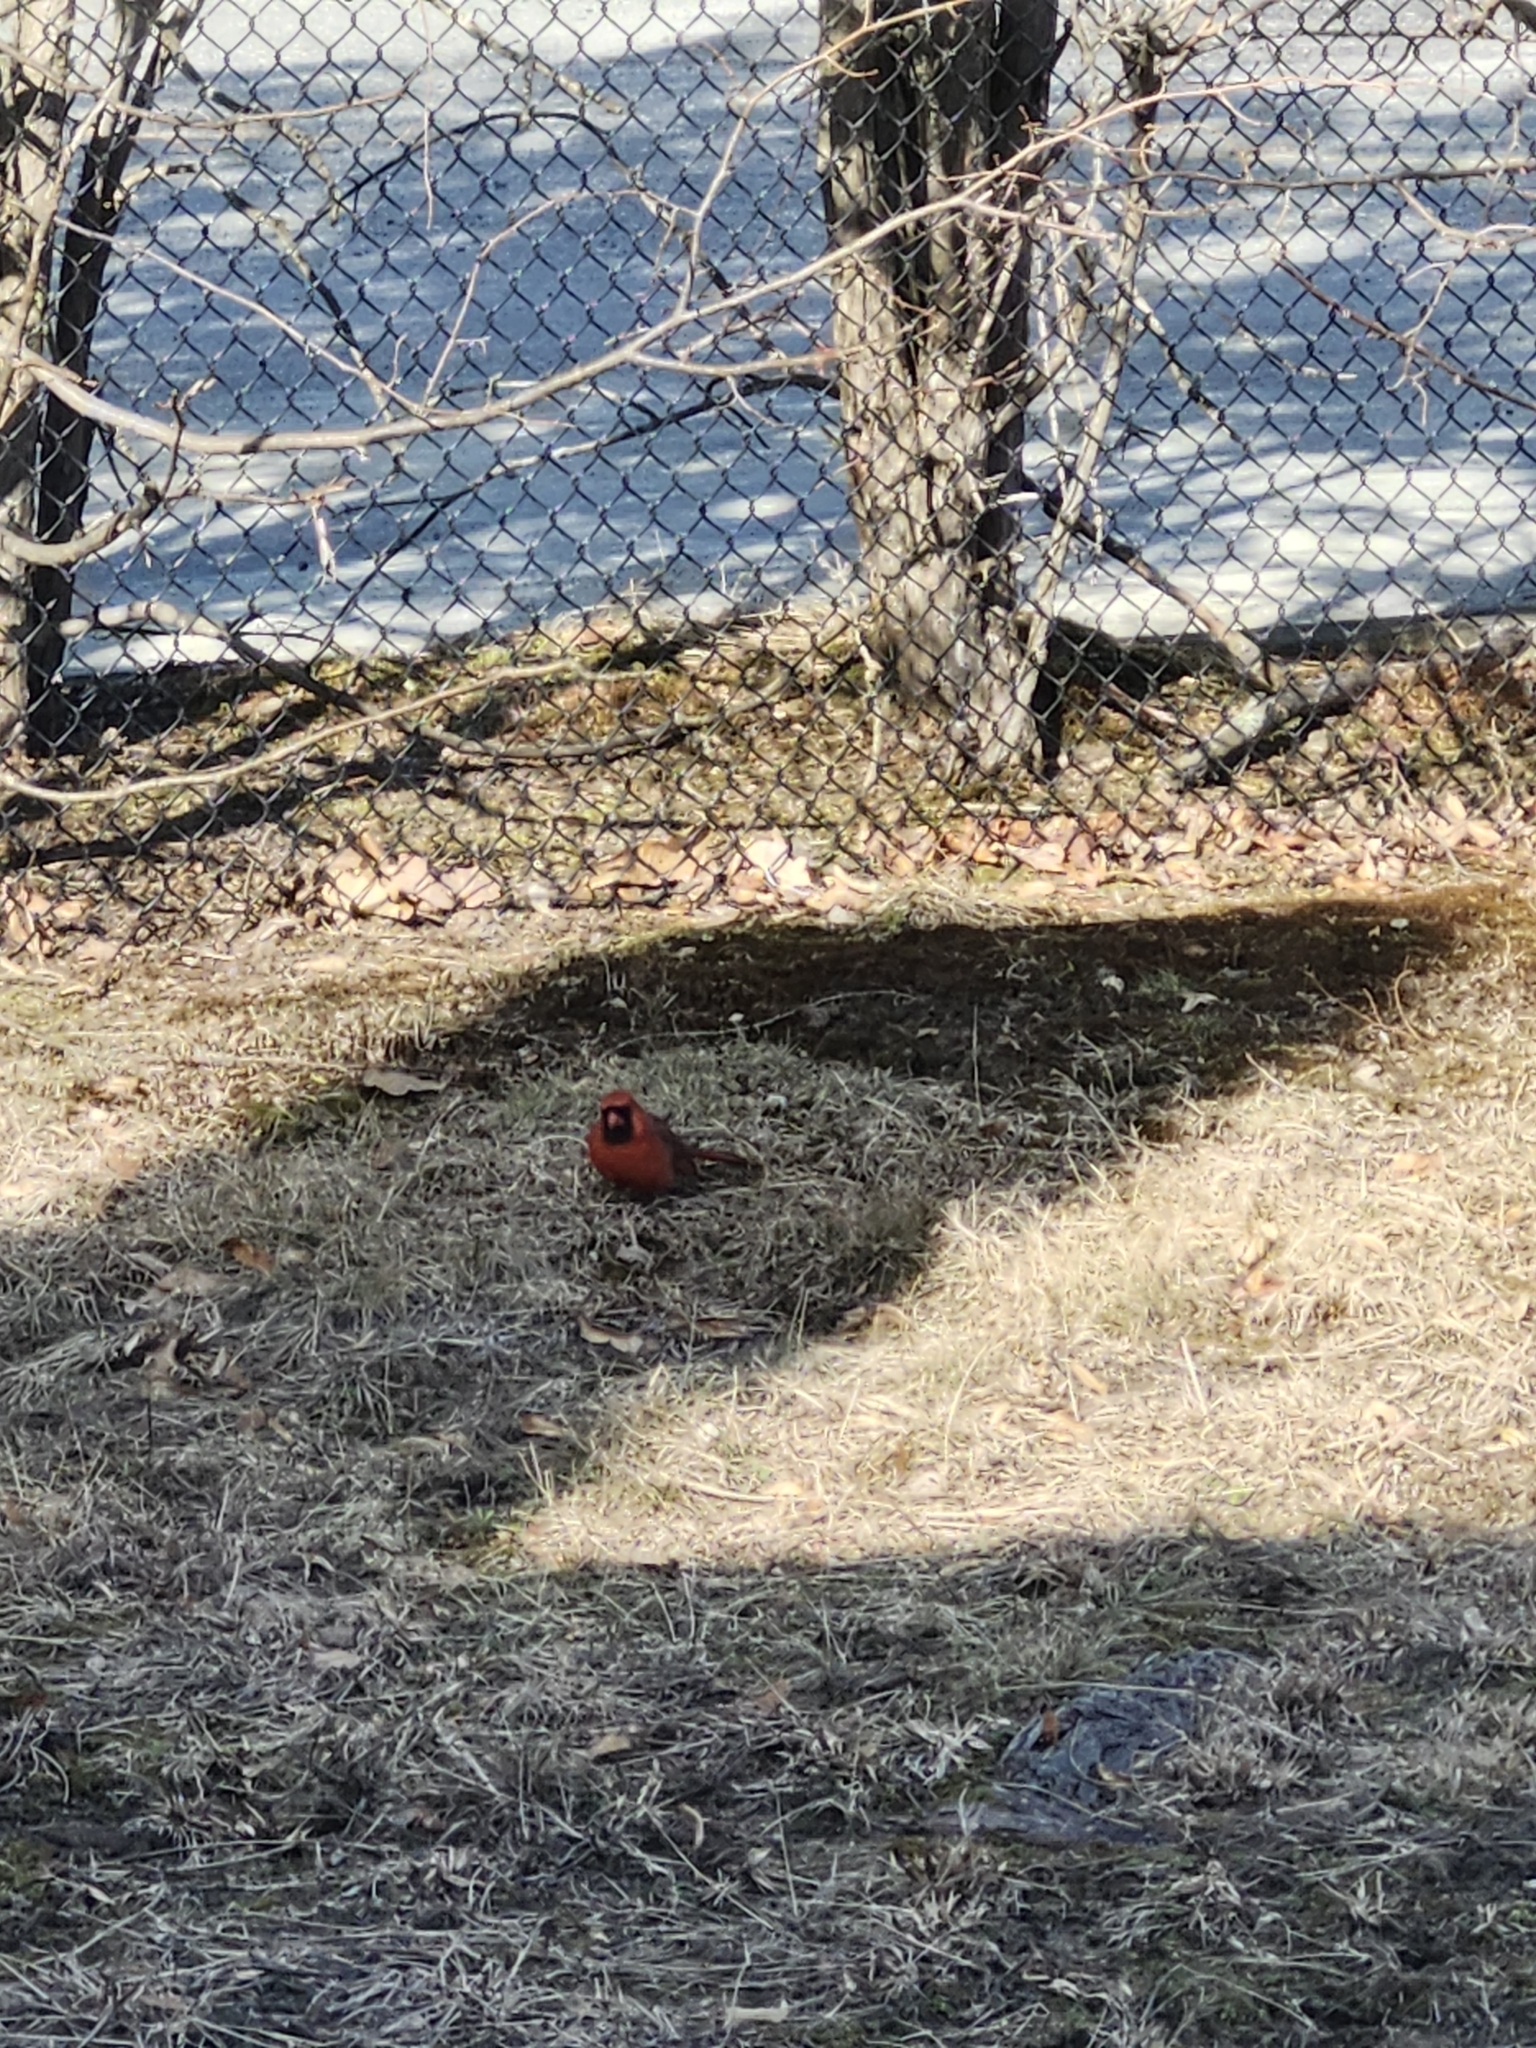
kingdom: Animalia
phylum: Chordata
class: Aves
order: Passeriformes
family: Cardinalidae
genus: Cardinalis
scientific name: Cardinalis cardinalis
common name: Northern cardinal
